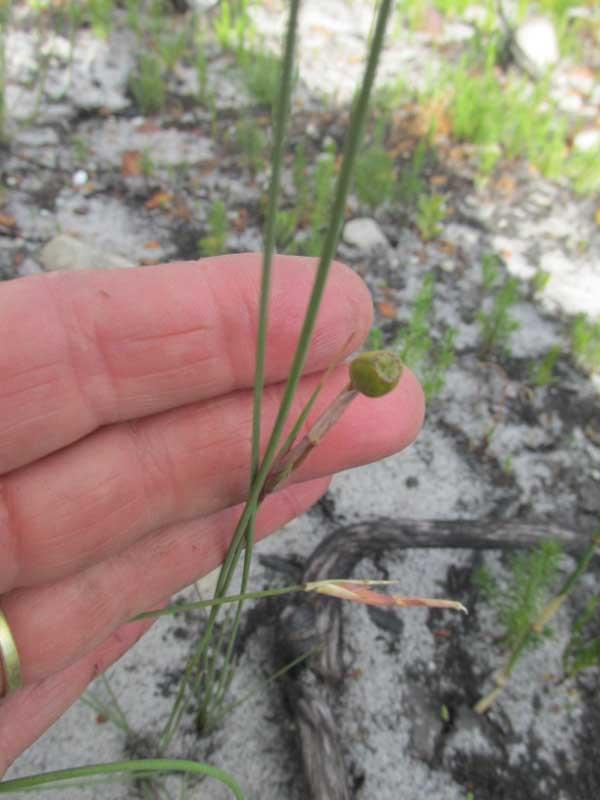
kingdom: Plantae
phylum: Tracheophyta
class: Liliopsida
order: Asparagales
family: Iridaceae
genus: Bobartia
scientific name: Bobartia filiformis
